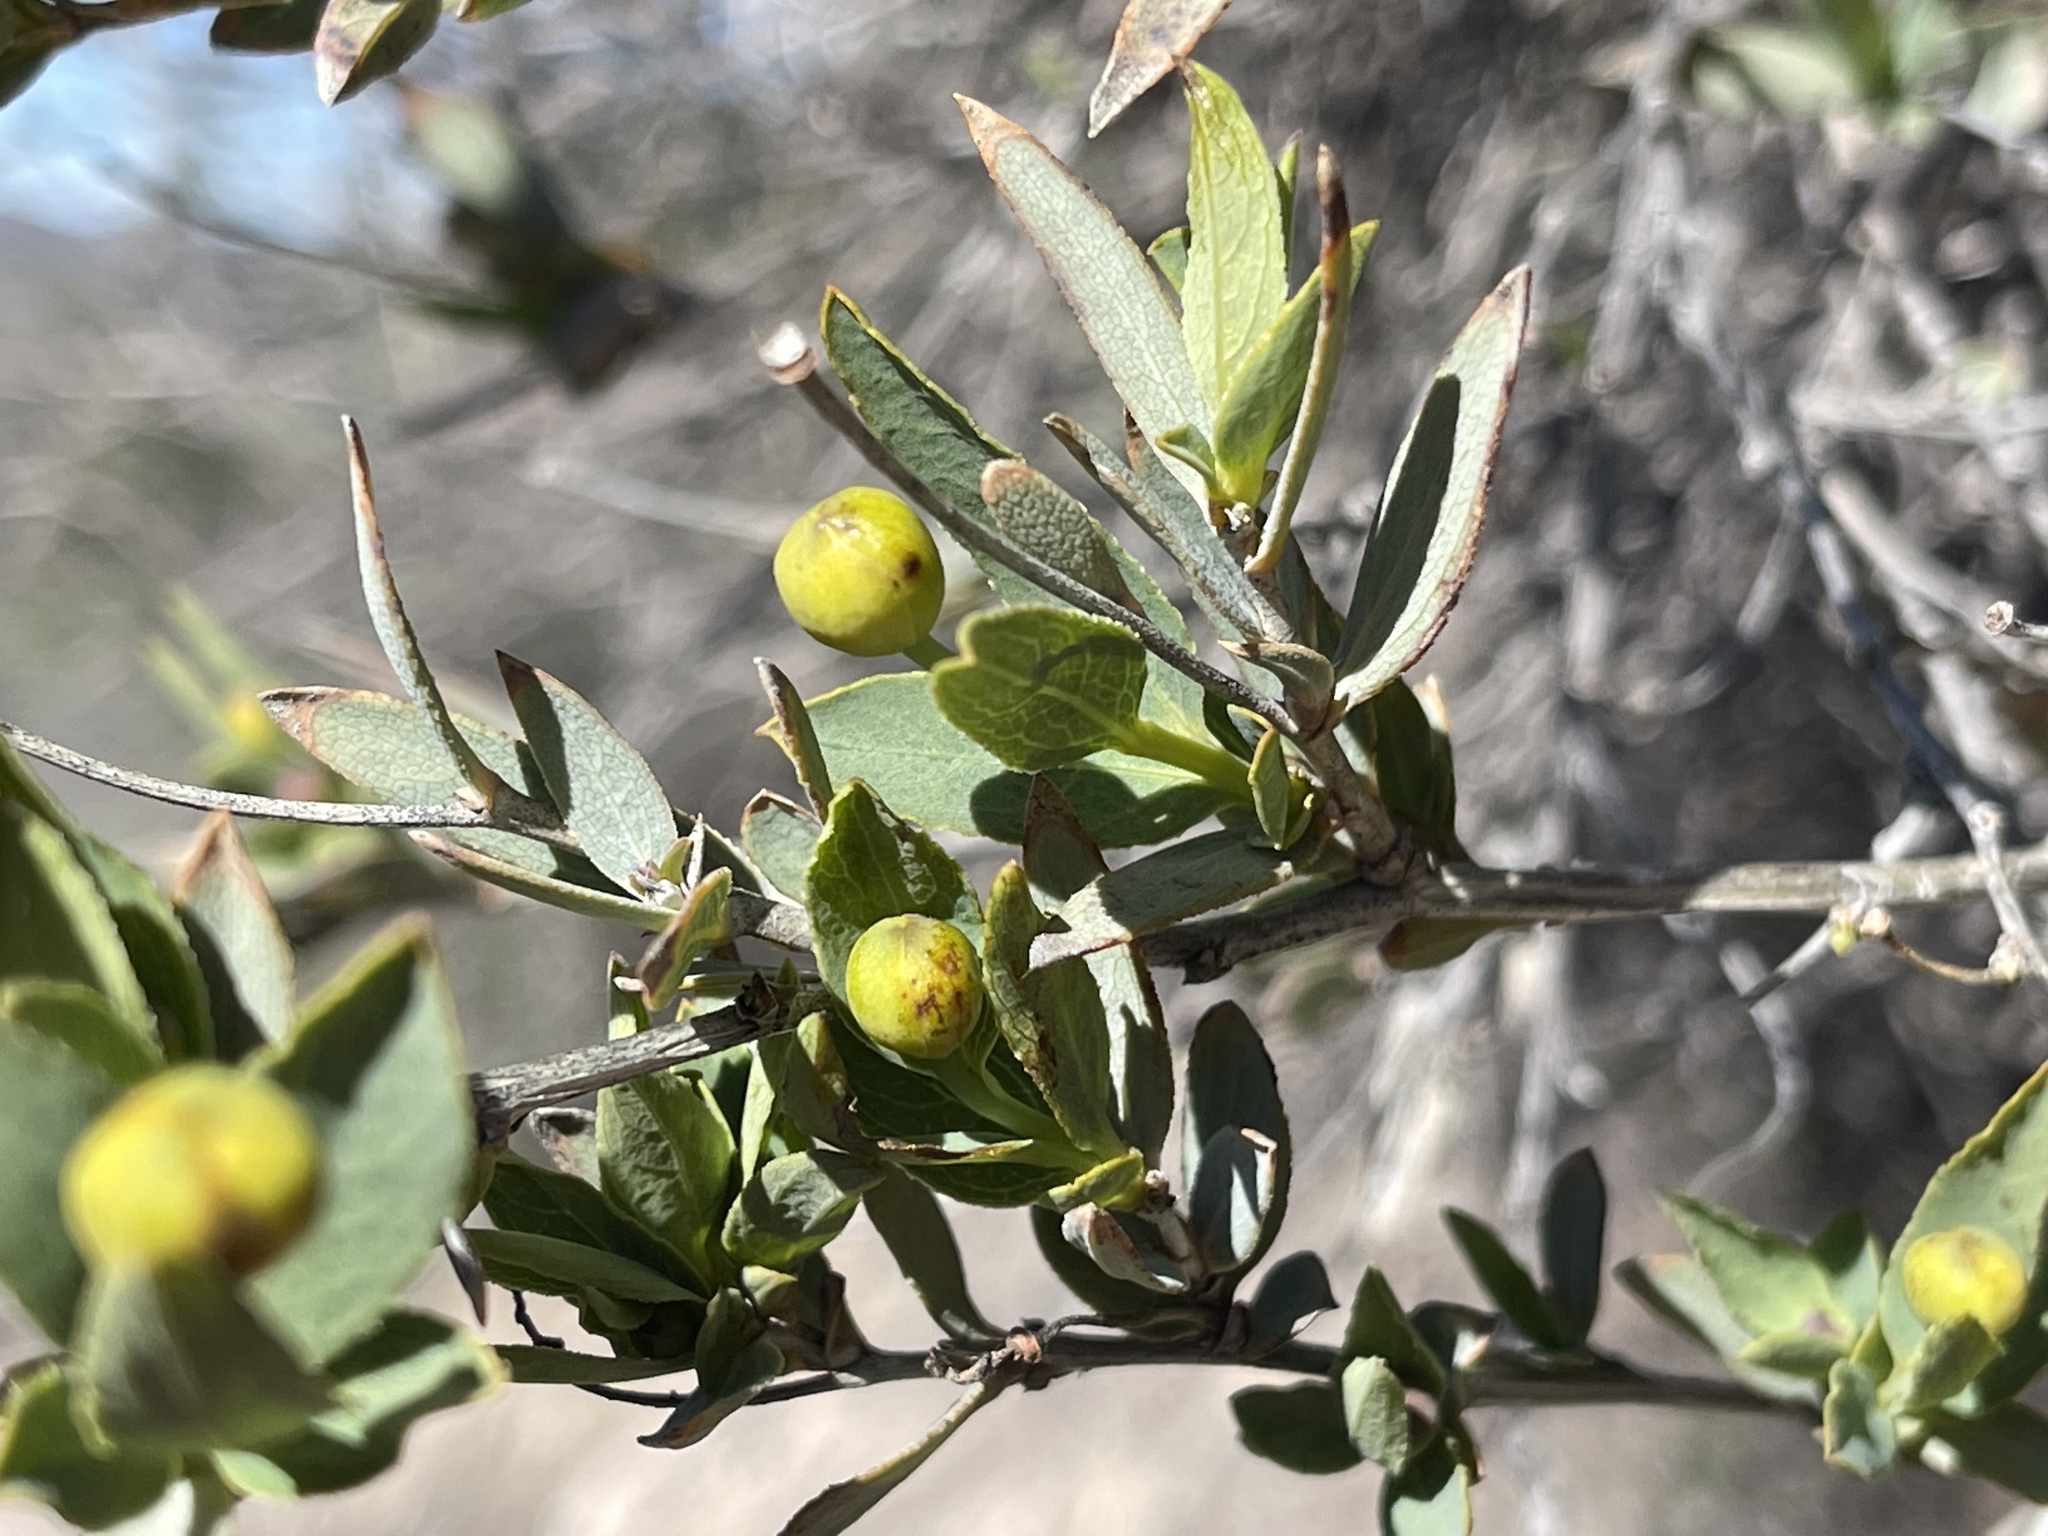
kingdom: Plantae
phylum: Tracheophyta
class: Magnoliopsida
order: Ranunculales
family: Papaveraceae
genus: Dendromecon
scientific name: Dendromecon rigida
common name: Tree poppy
